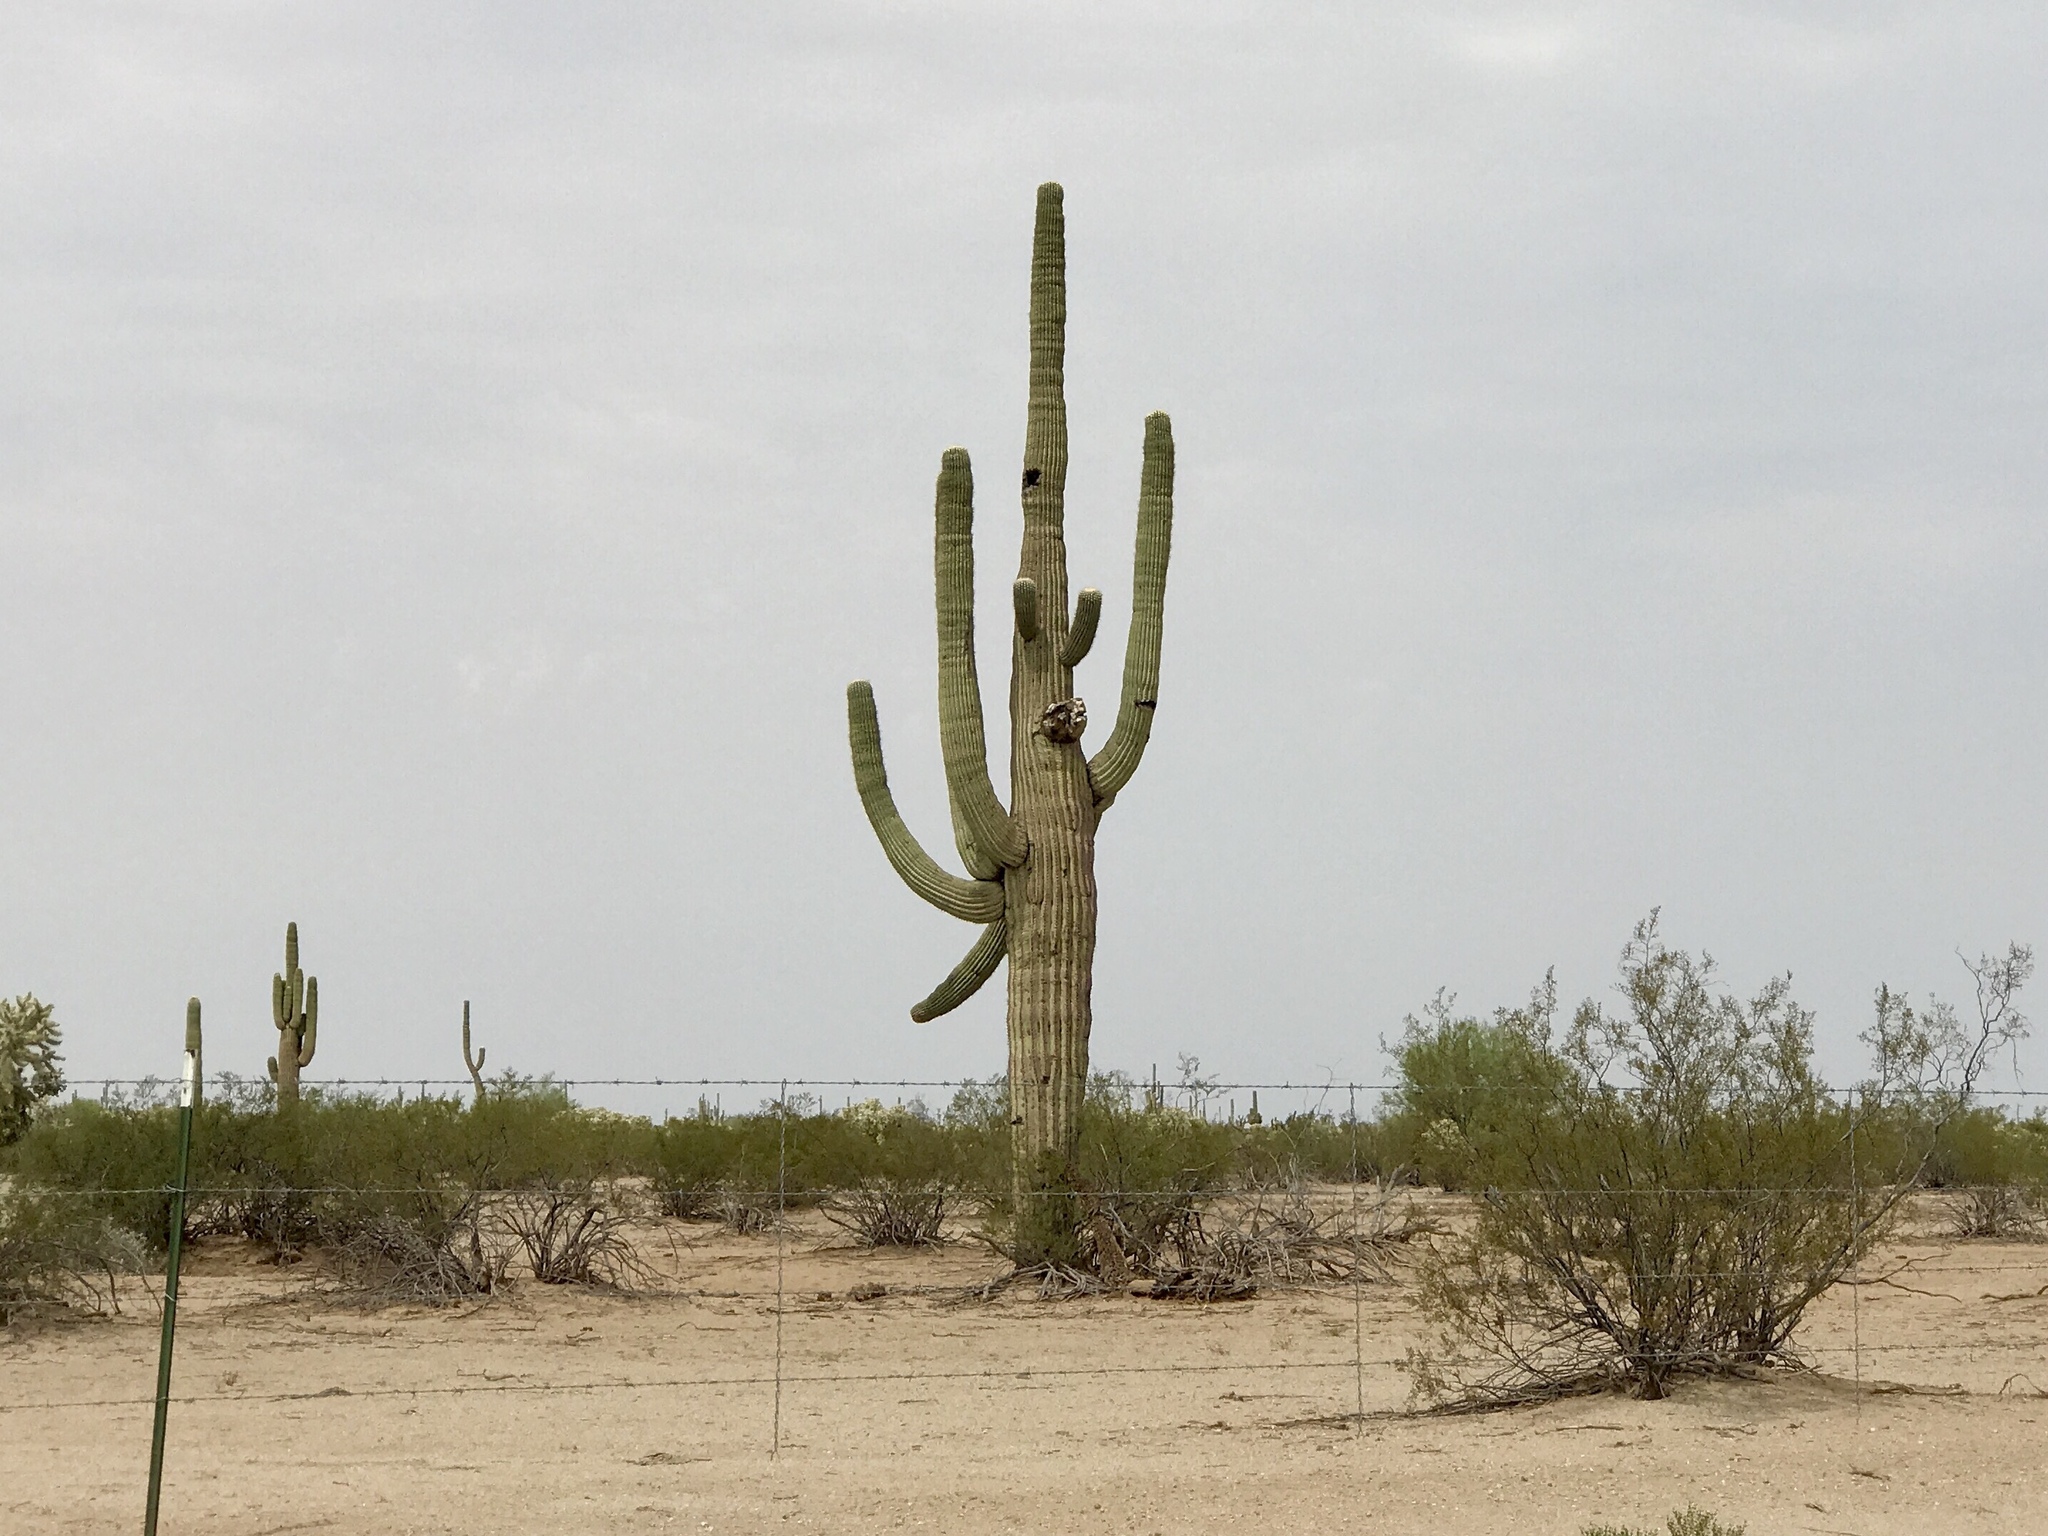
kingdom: Plantae
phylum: Tracheophyta
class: Magnoliopsida
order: Caryophyllales
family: Cactaceae
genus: Carnegiea
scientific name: Carnegiea gigantea
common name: Saguaro
